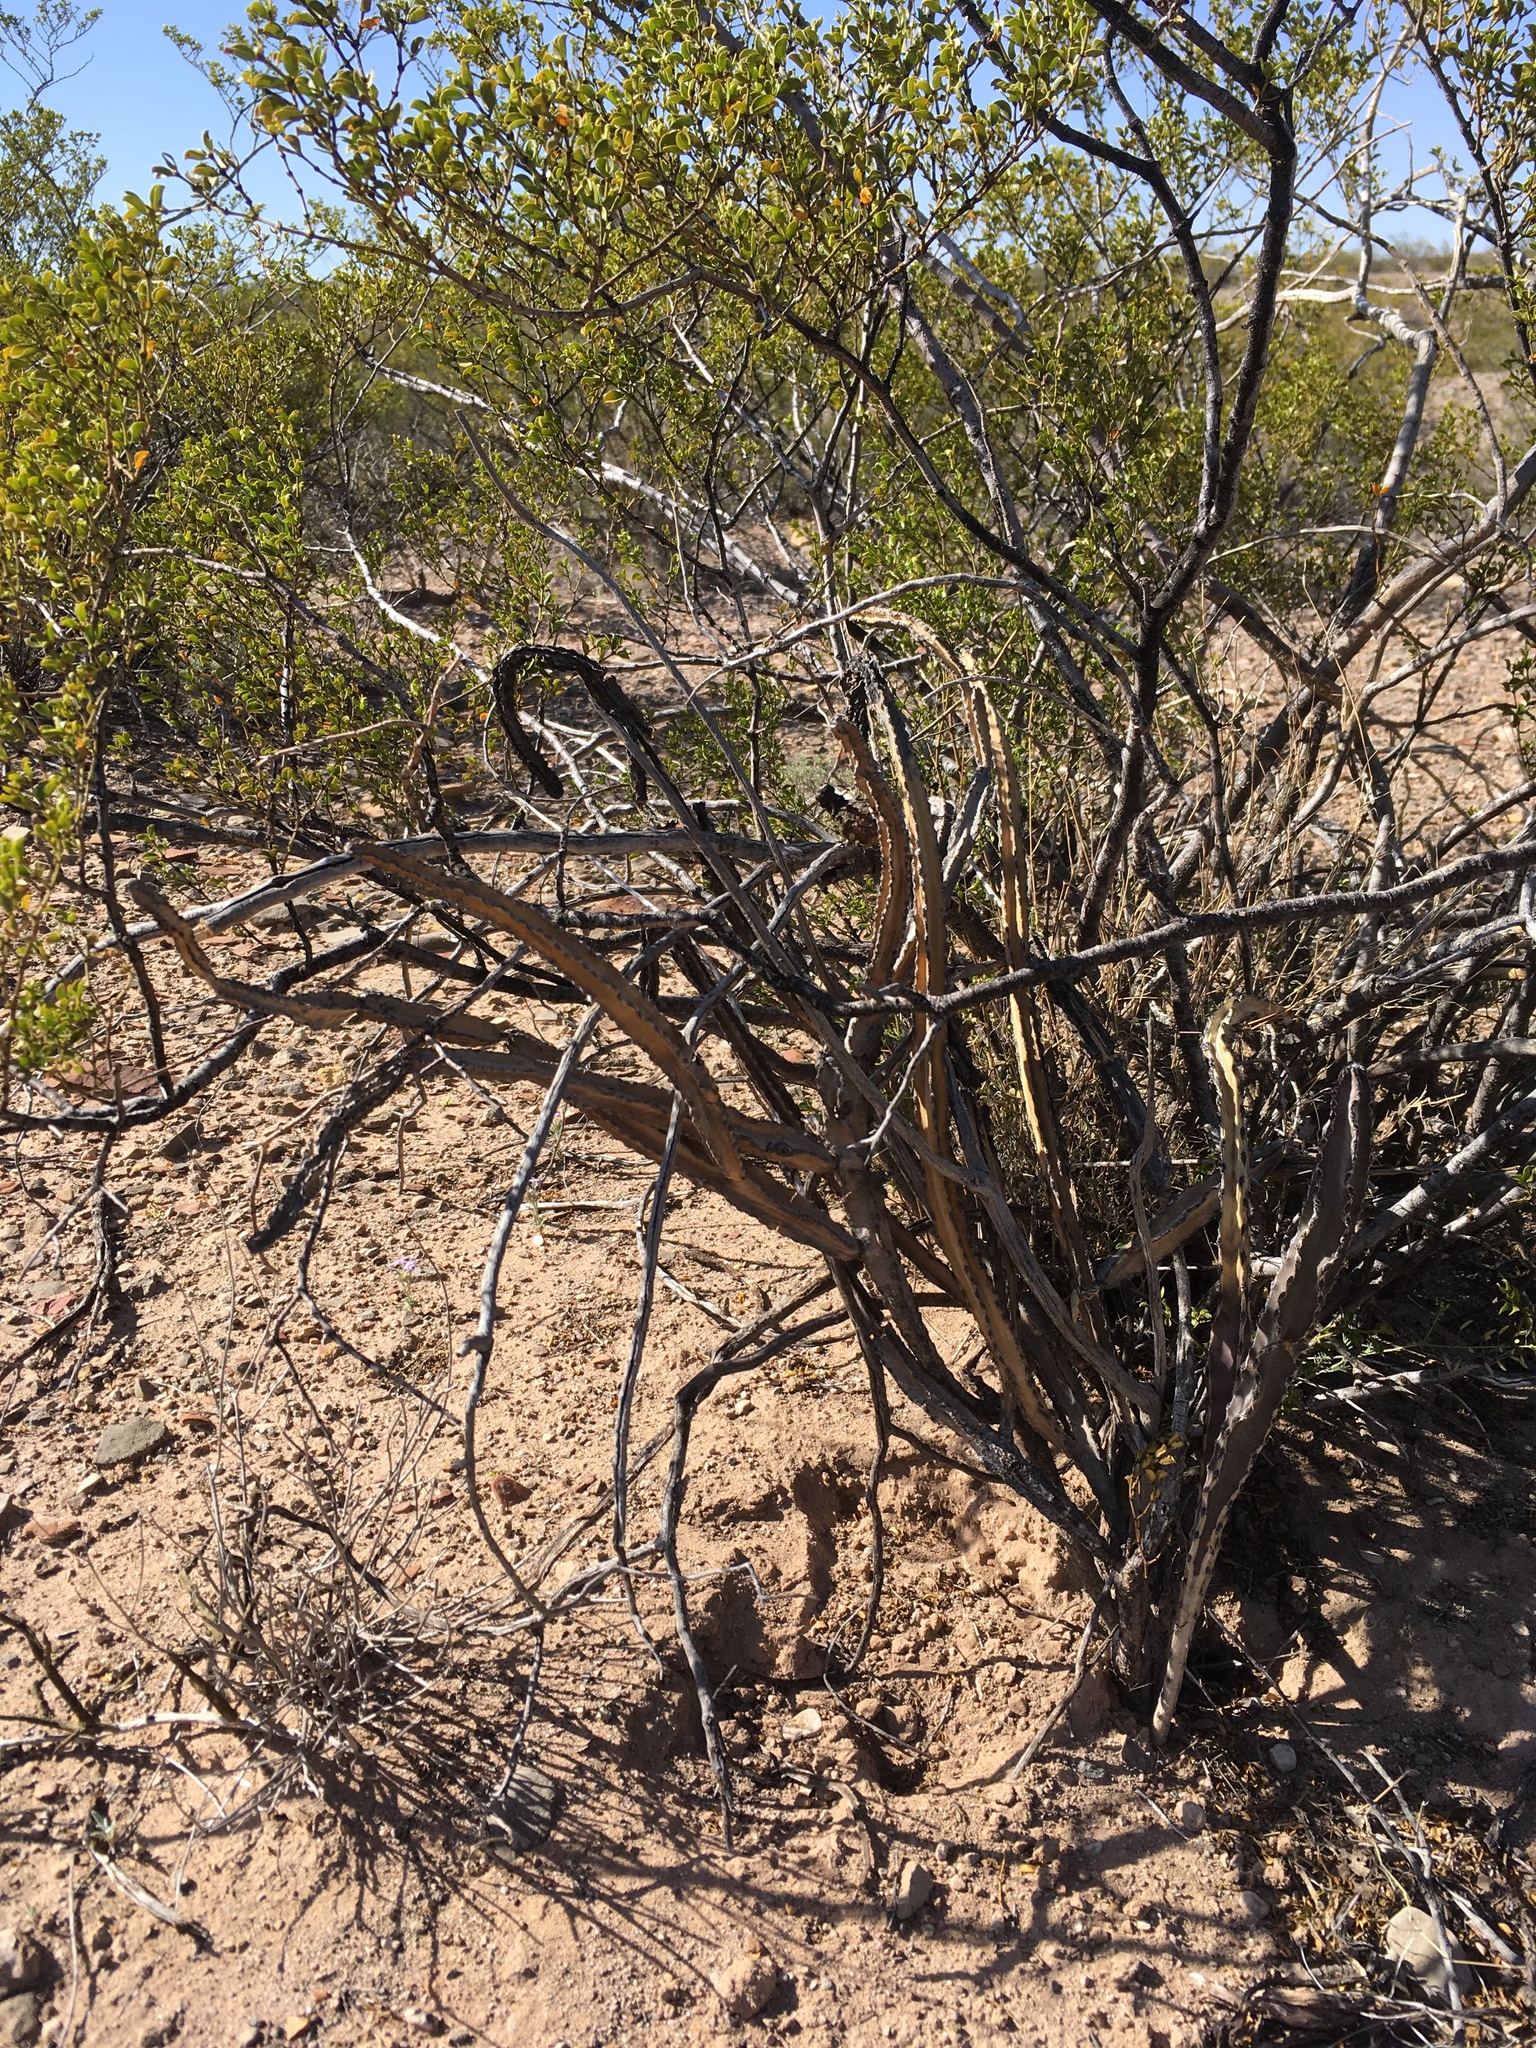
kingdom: Plantae
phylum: Tracheophyta
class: Magnoliopsida
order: Caryophyllales
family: Cactaceae
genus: Peniocereus
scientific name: Peniocereus greggii
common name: Desert night-blooming cereus
